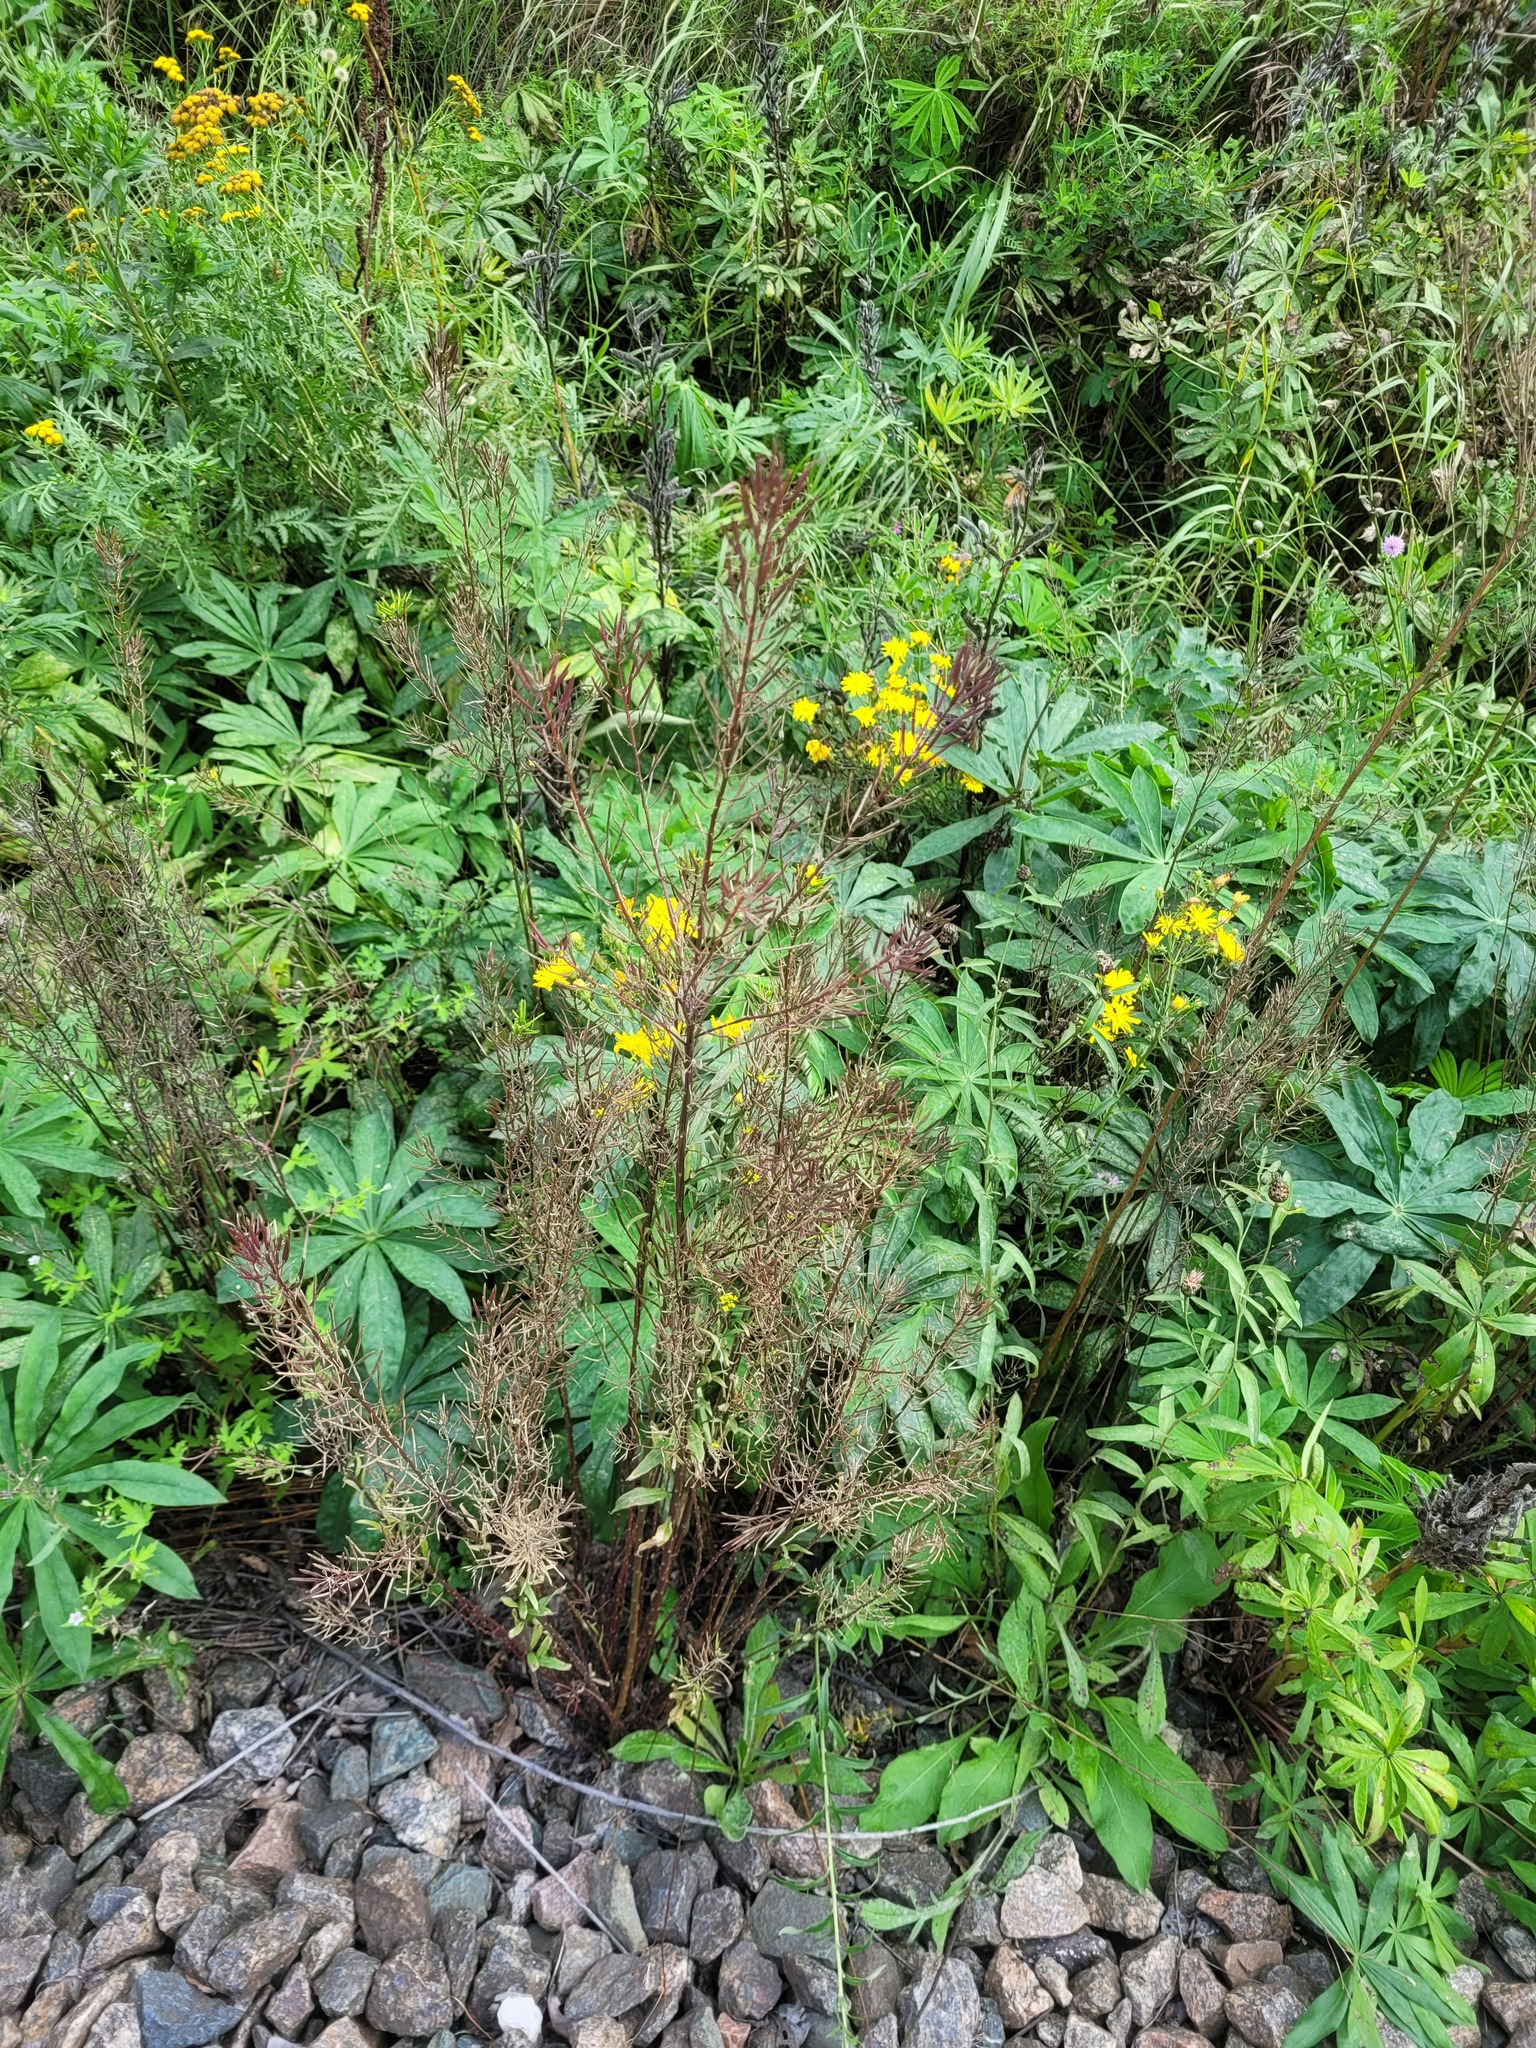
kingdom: Plantae
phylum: Tracheophyta
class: Magnoliopsida
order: Brassicales
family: Brassicaceae
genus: Erysimum
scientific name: Erysimum cheiranthoides
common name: Treacle mustard
